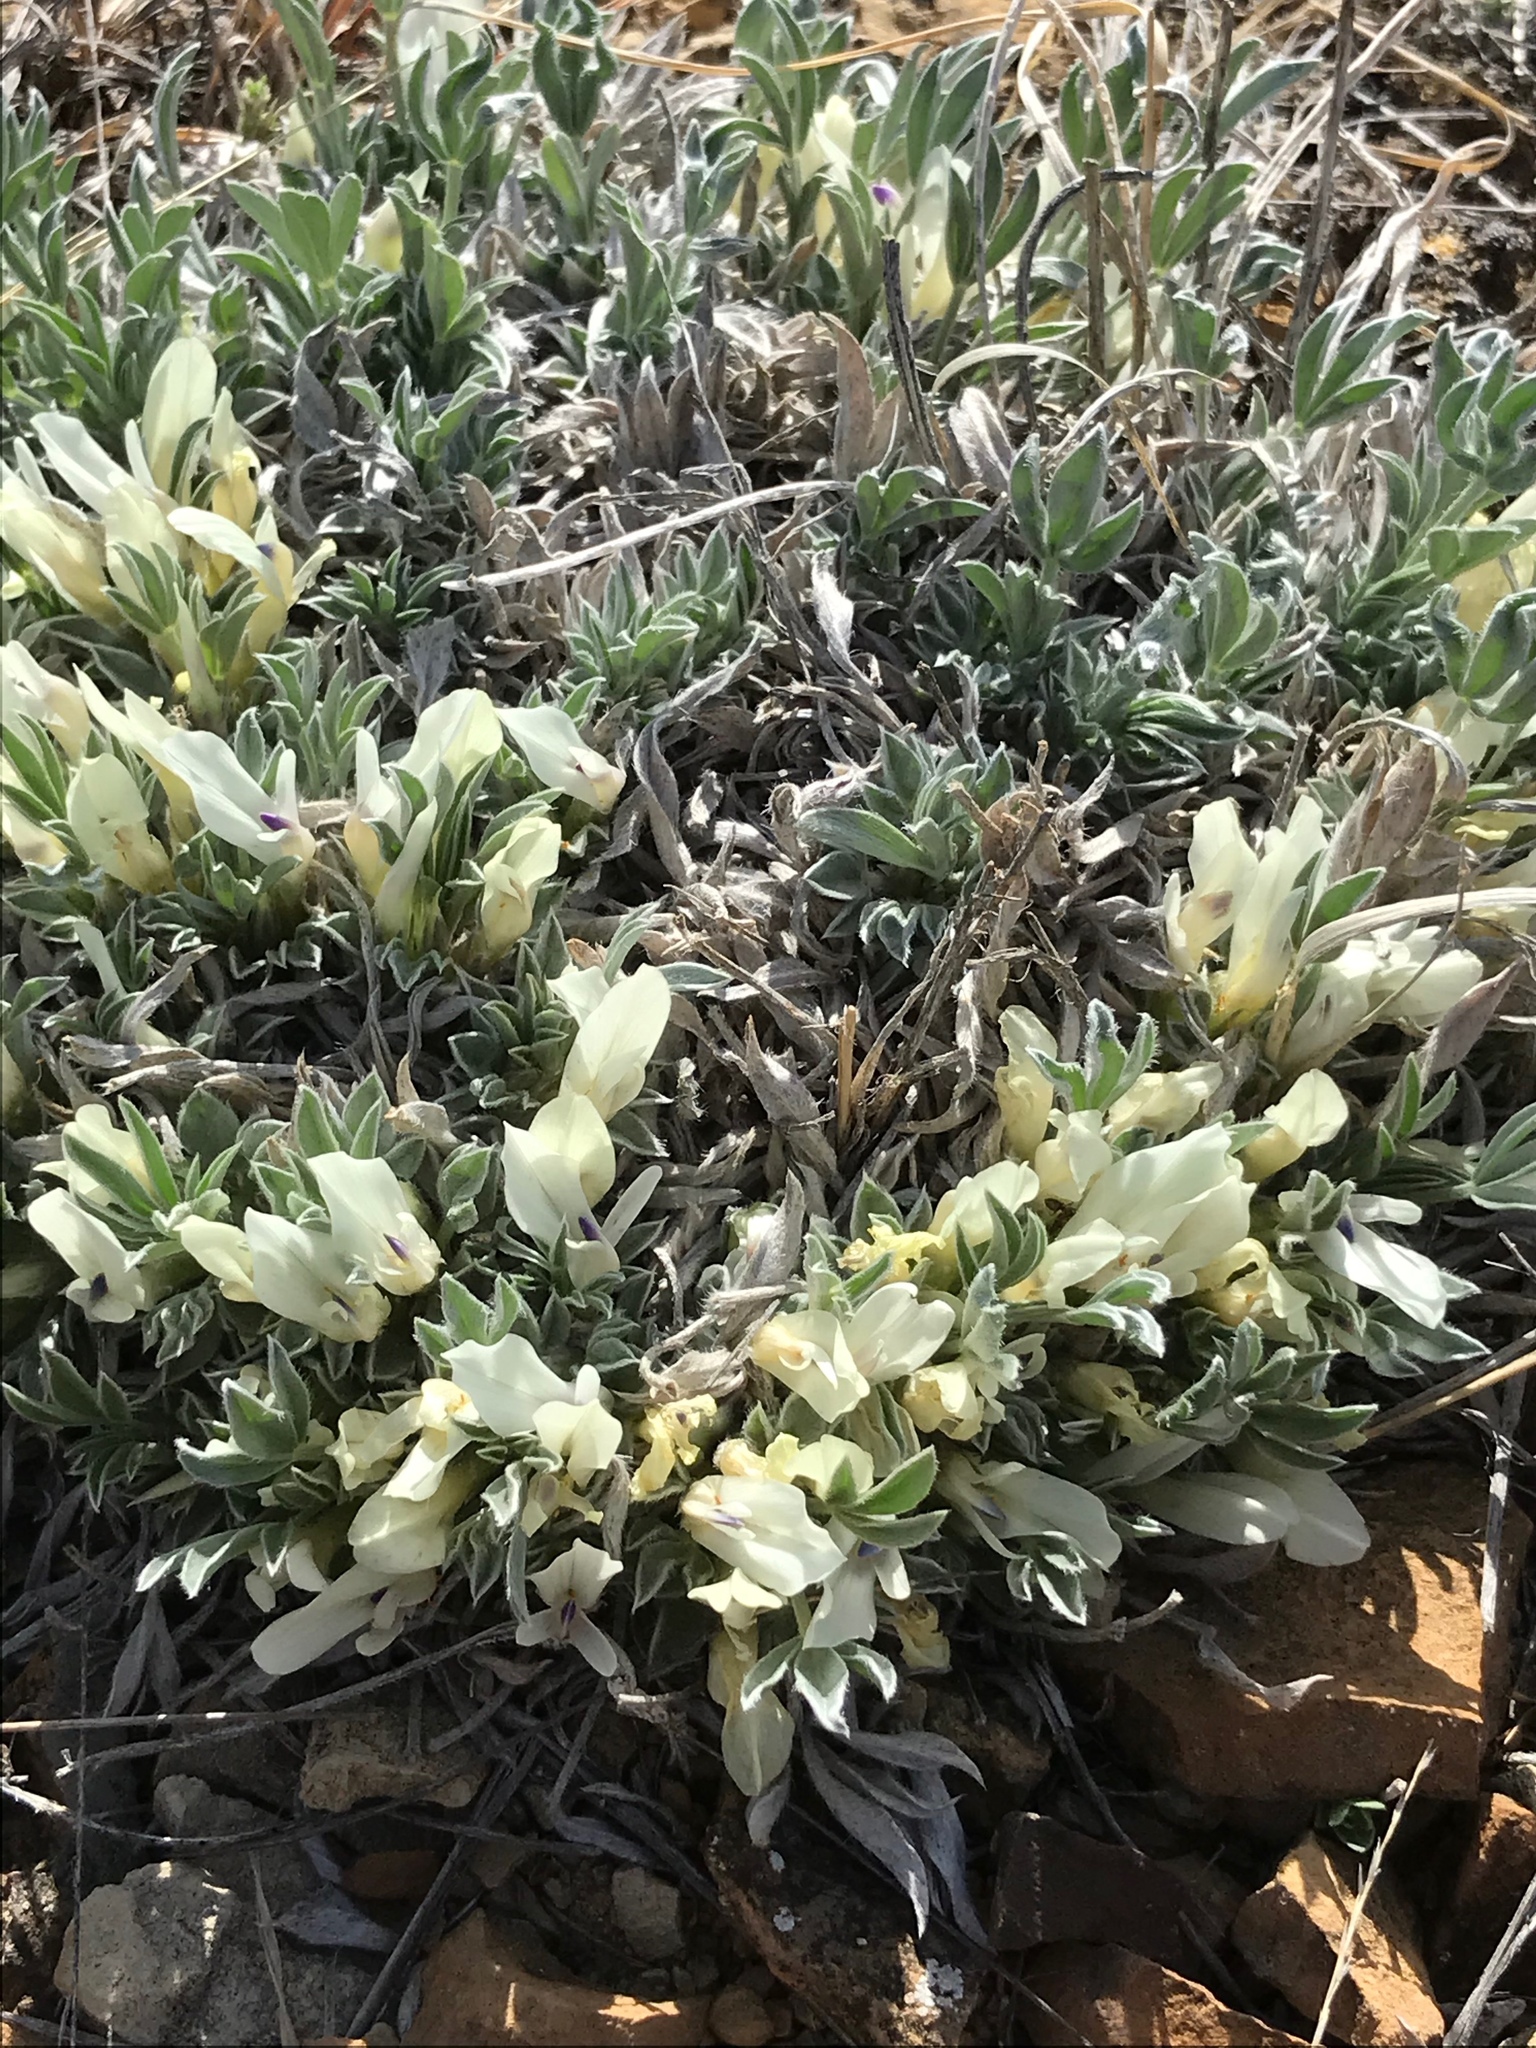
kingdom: Plantae
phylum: Tracheophyta
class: Magnoliopsida
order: Fabales
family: Fabaceae
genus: Astragalus
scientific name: Astragalus gilviflorus
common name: Cushion milk-vetch
